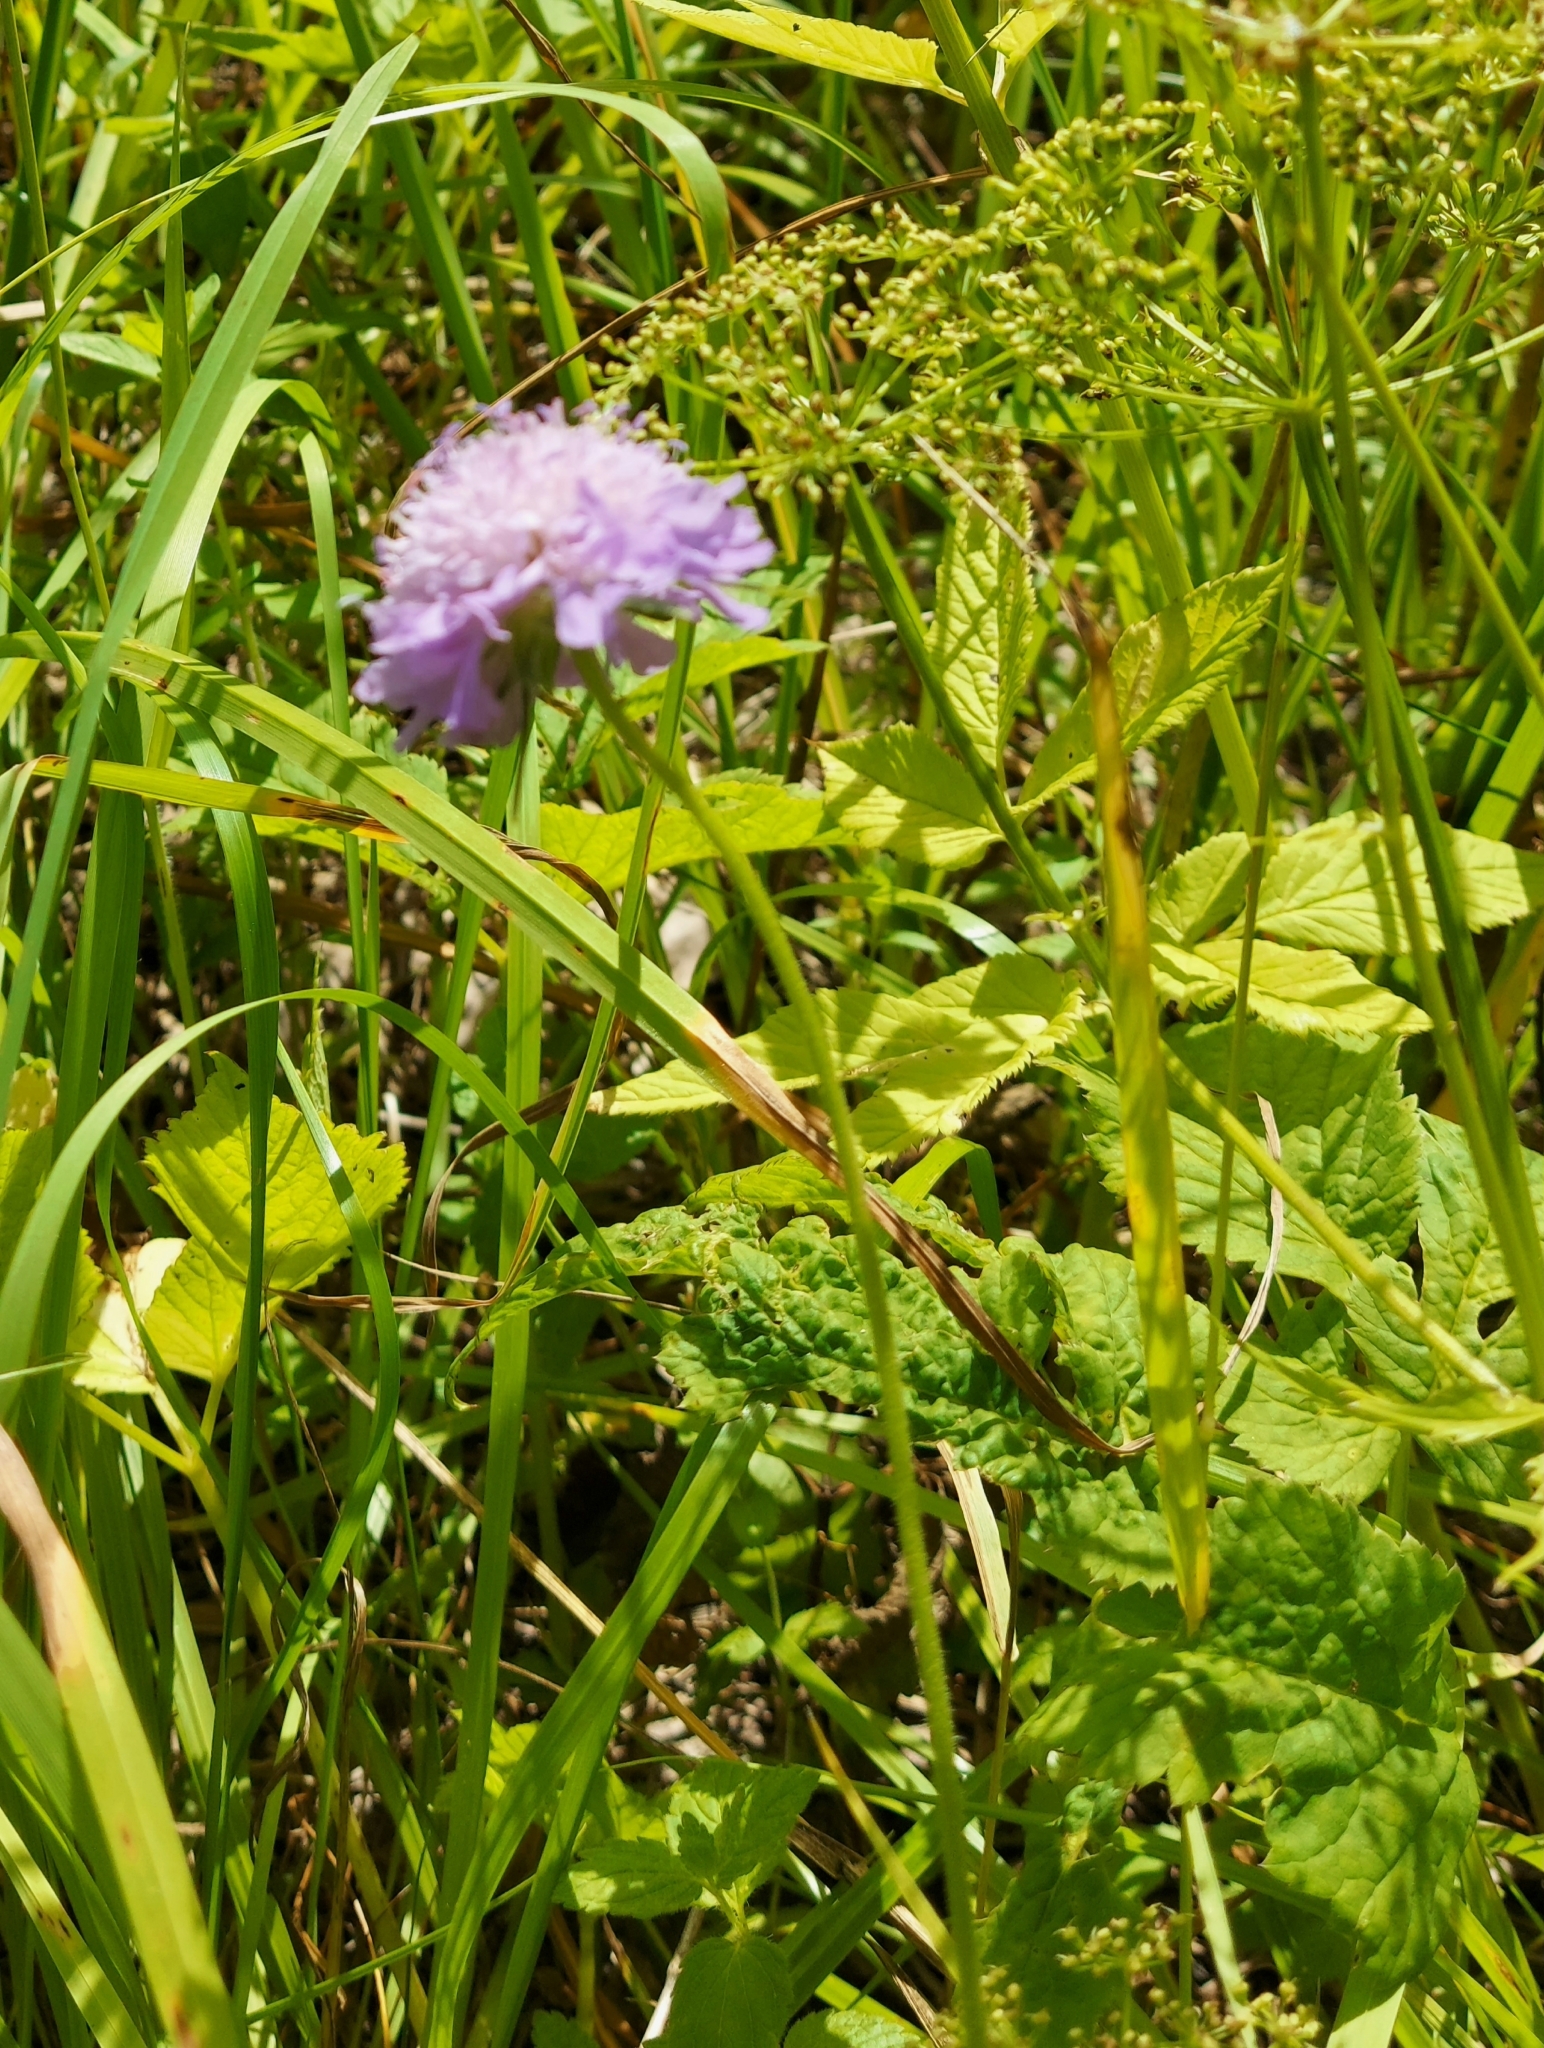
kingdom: Plantae
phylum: Tracheophyta
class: Magnoliopsida
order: Dipsacales
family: Caprifoliaceae
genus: Knautia
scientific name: Knautia arvensis
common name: Field scabiosa
